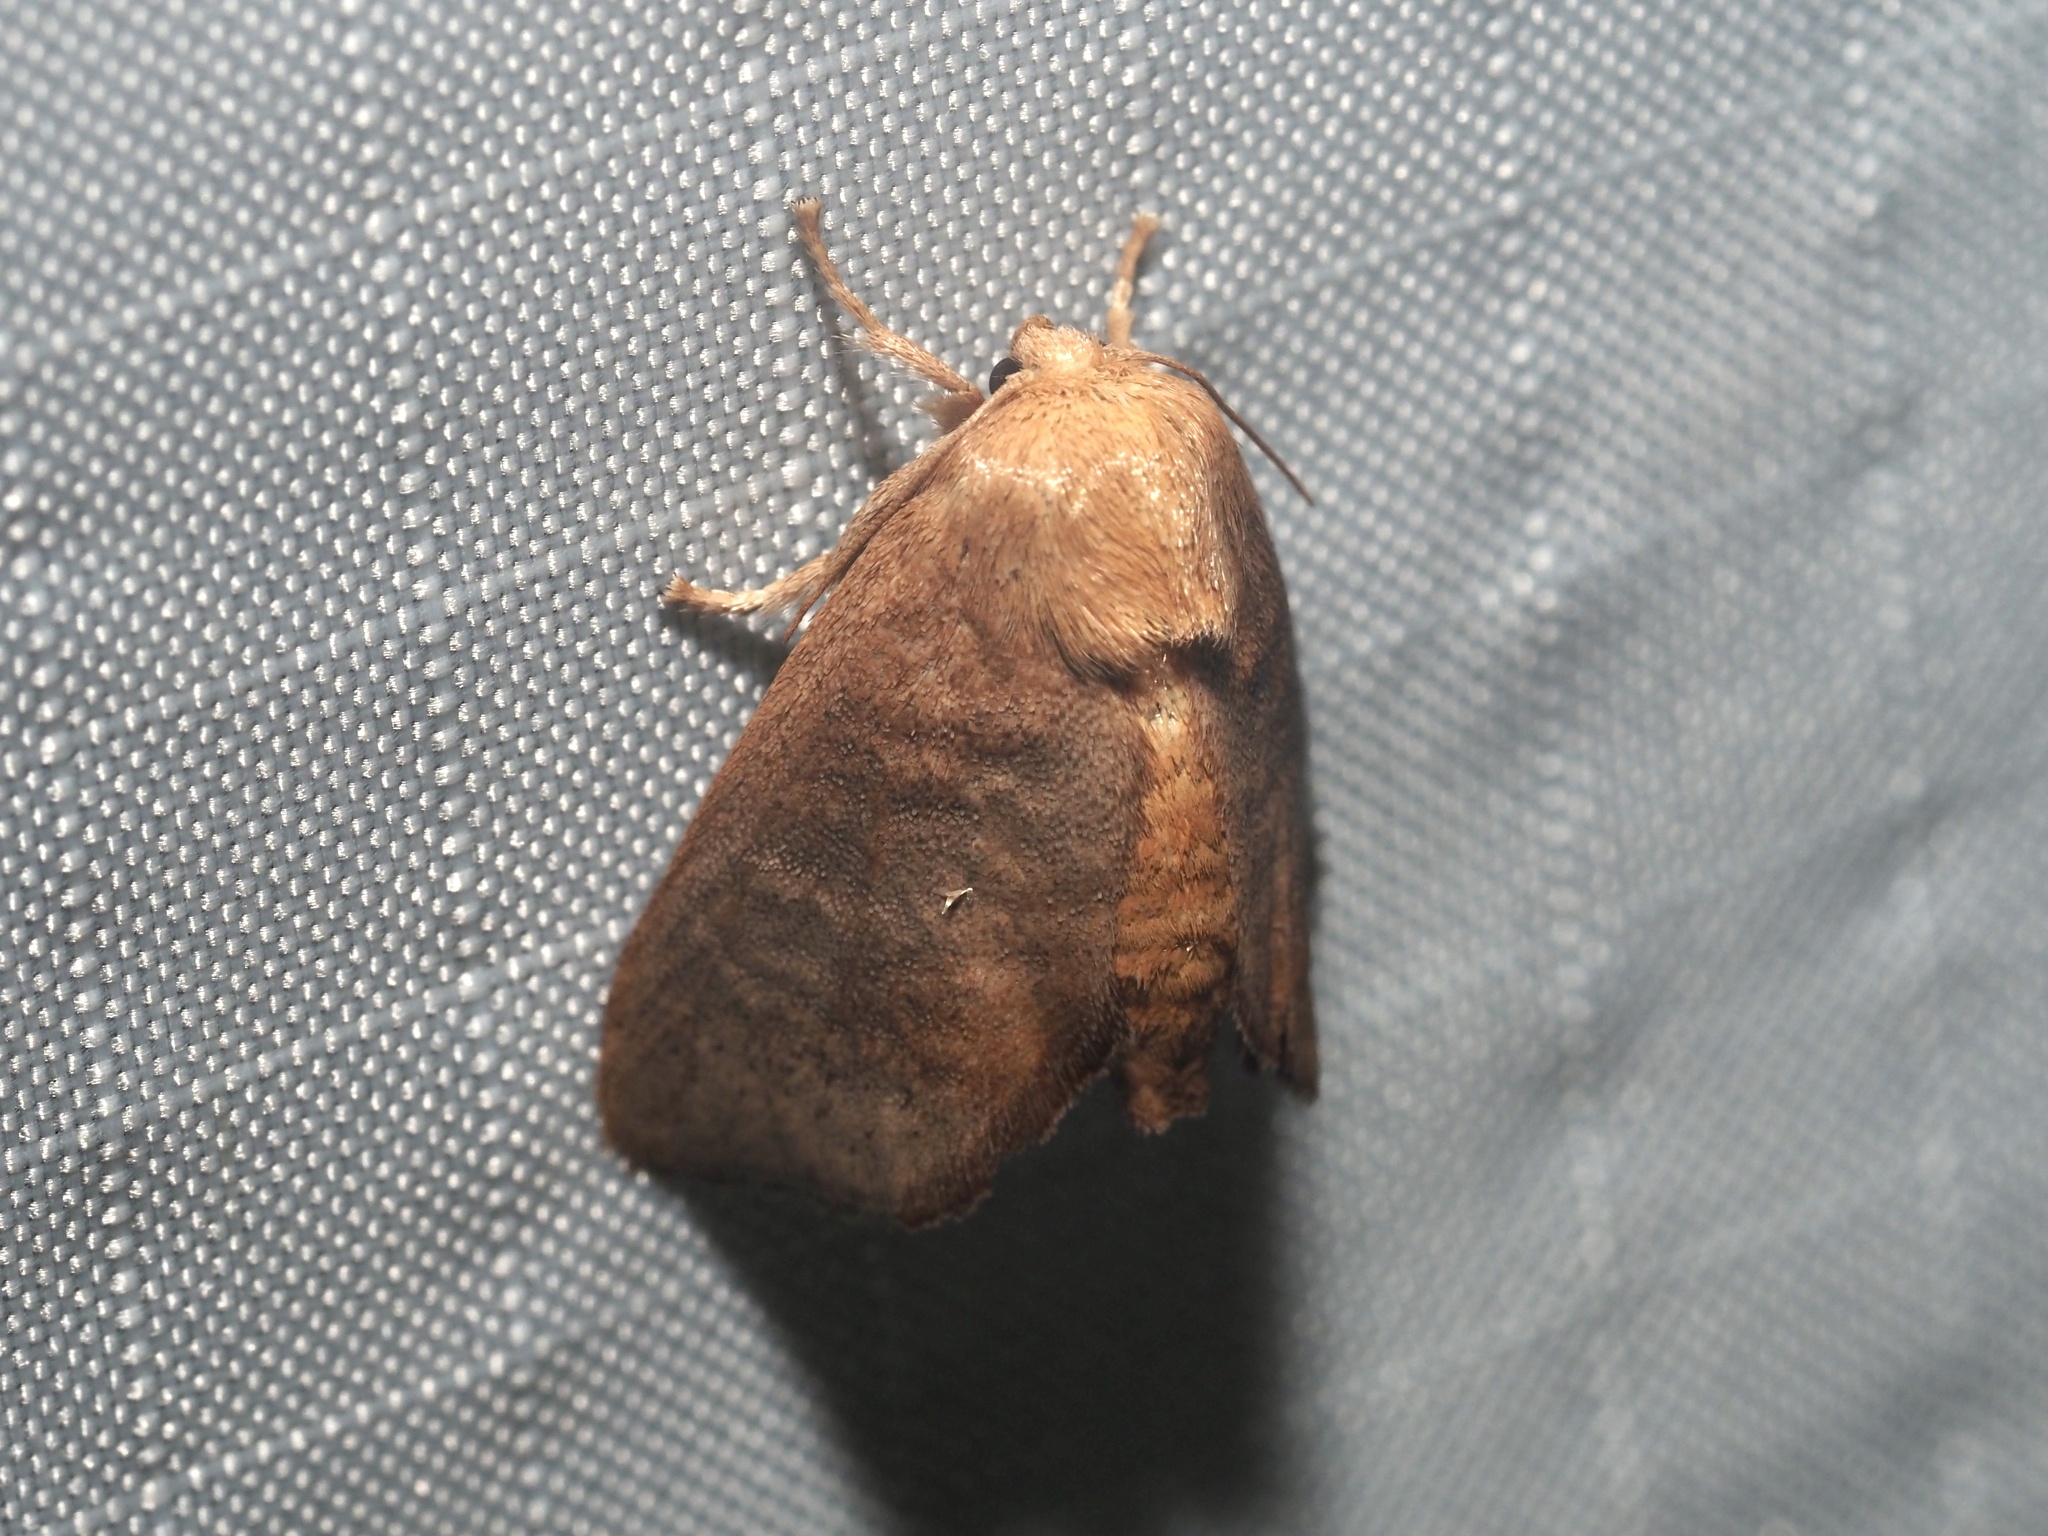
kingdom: Animalia
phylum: Arthropoda
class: Insecta
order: Lepidoptera
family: Limacodidae
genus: Isa
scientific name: Isa textula
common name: Crowned slug moth
